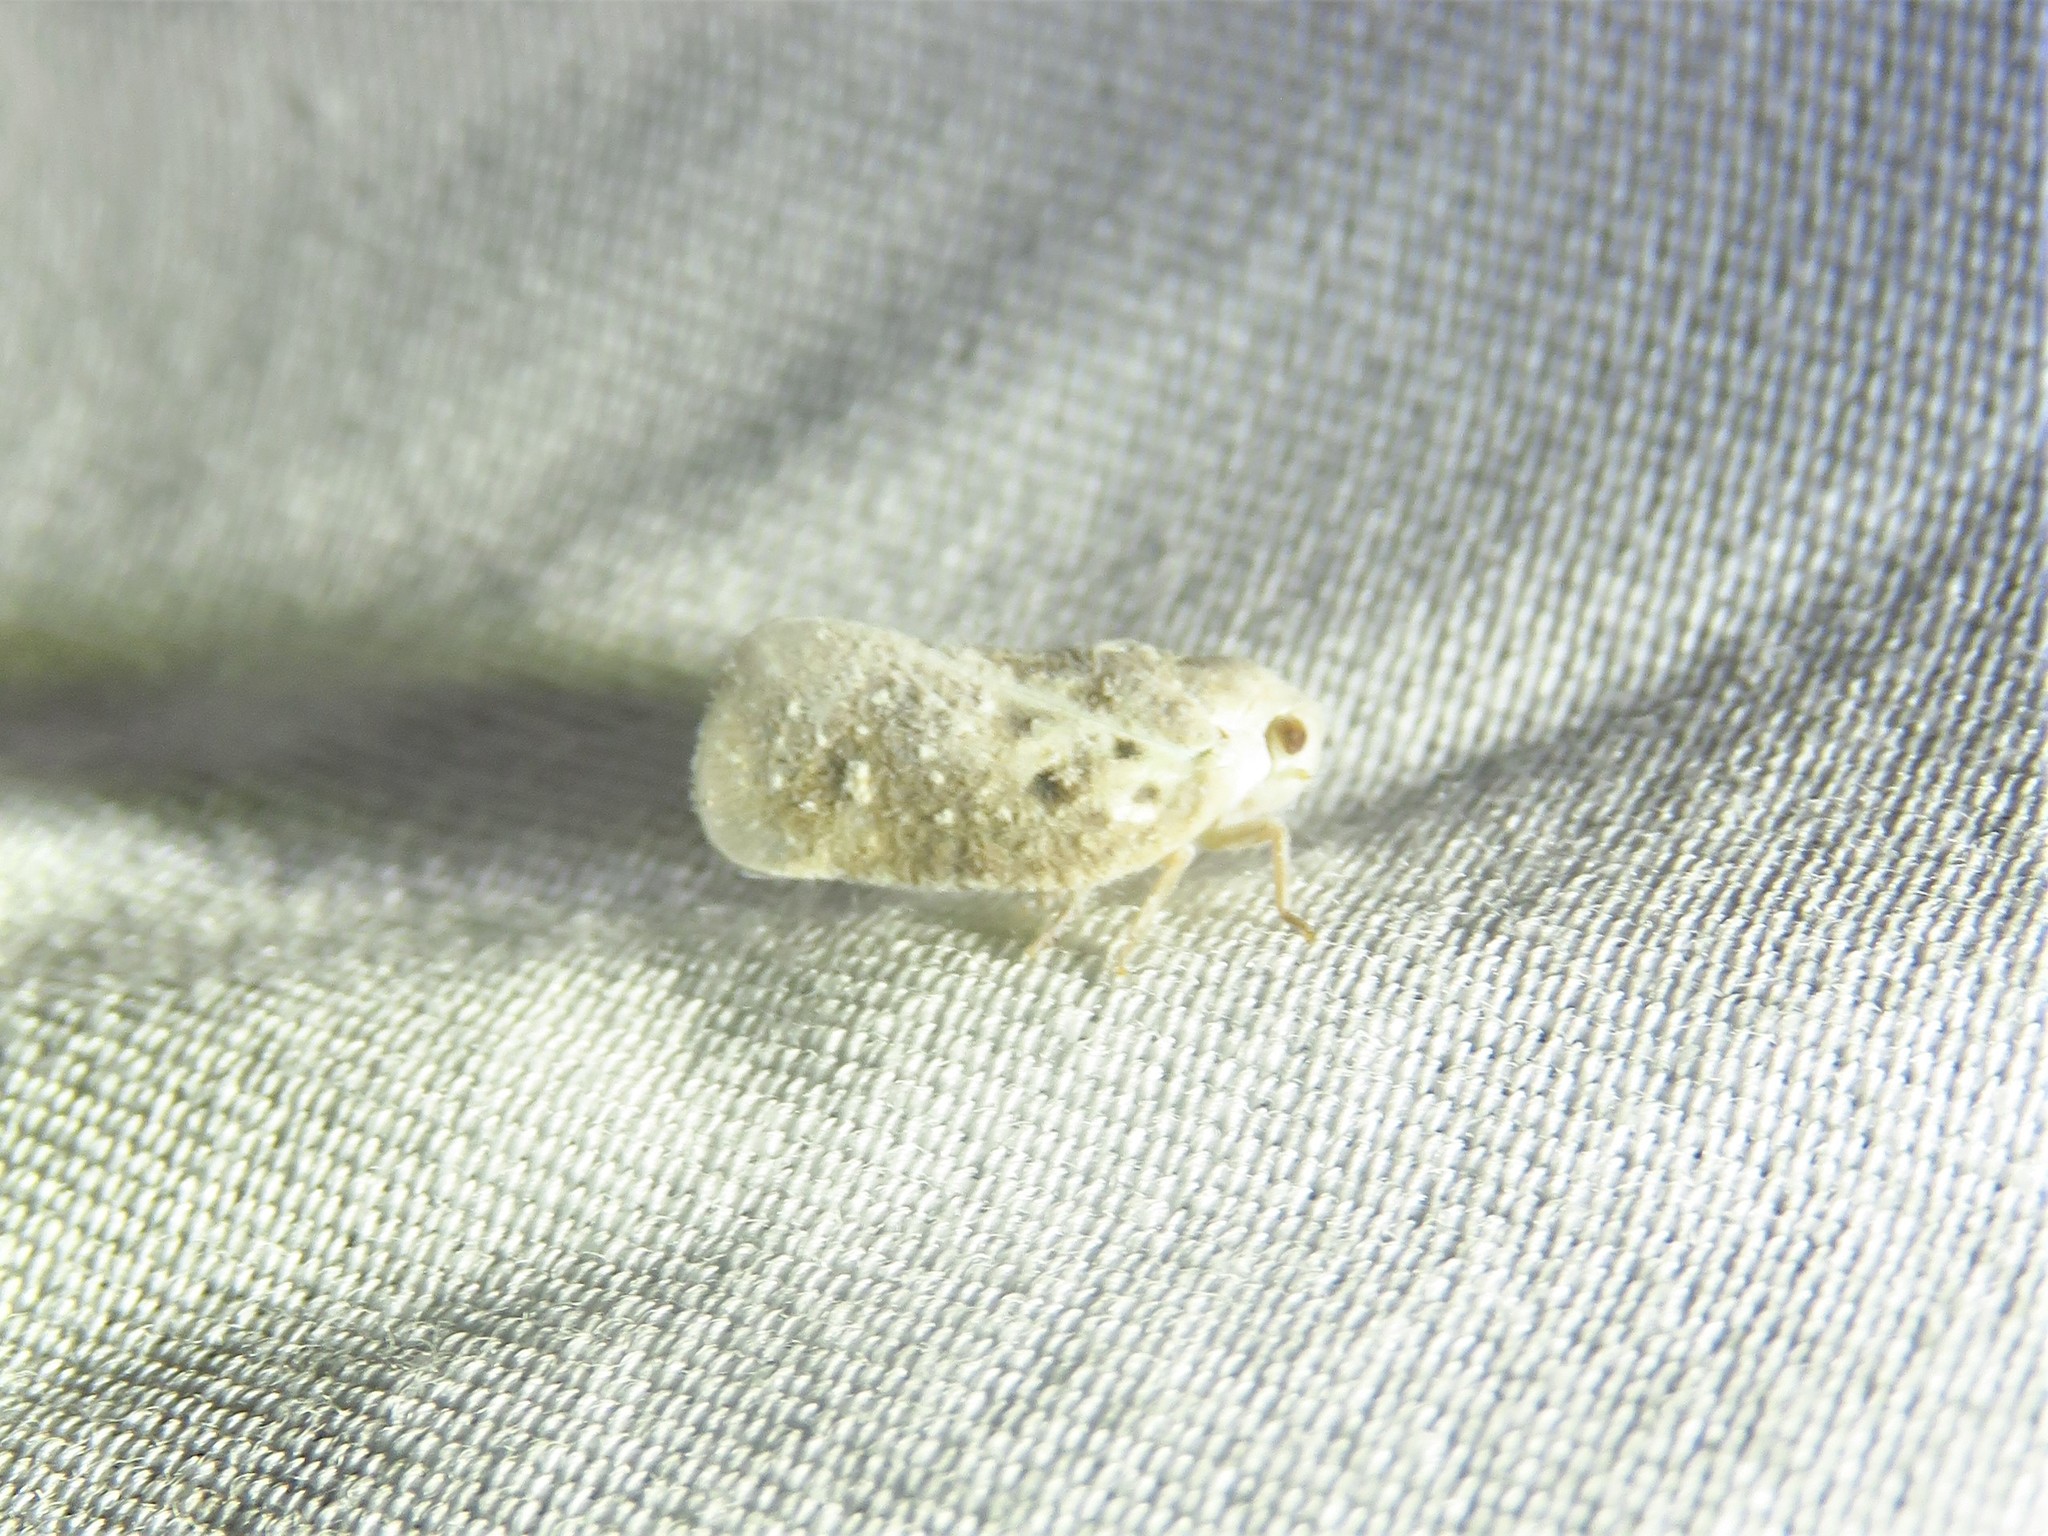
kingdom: Animalia
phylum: Arthropoda
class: Insecta
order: Hemiptera
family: Flatidae
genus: Metcalfa
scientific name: Metcalfa pruinosa
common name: Citrus flatid planthopper
